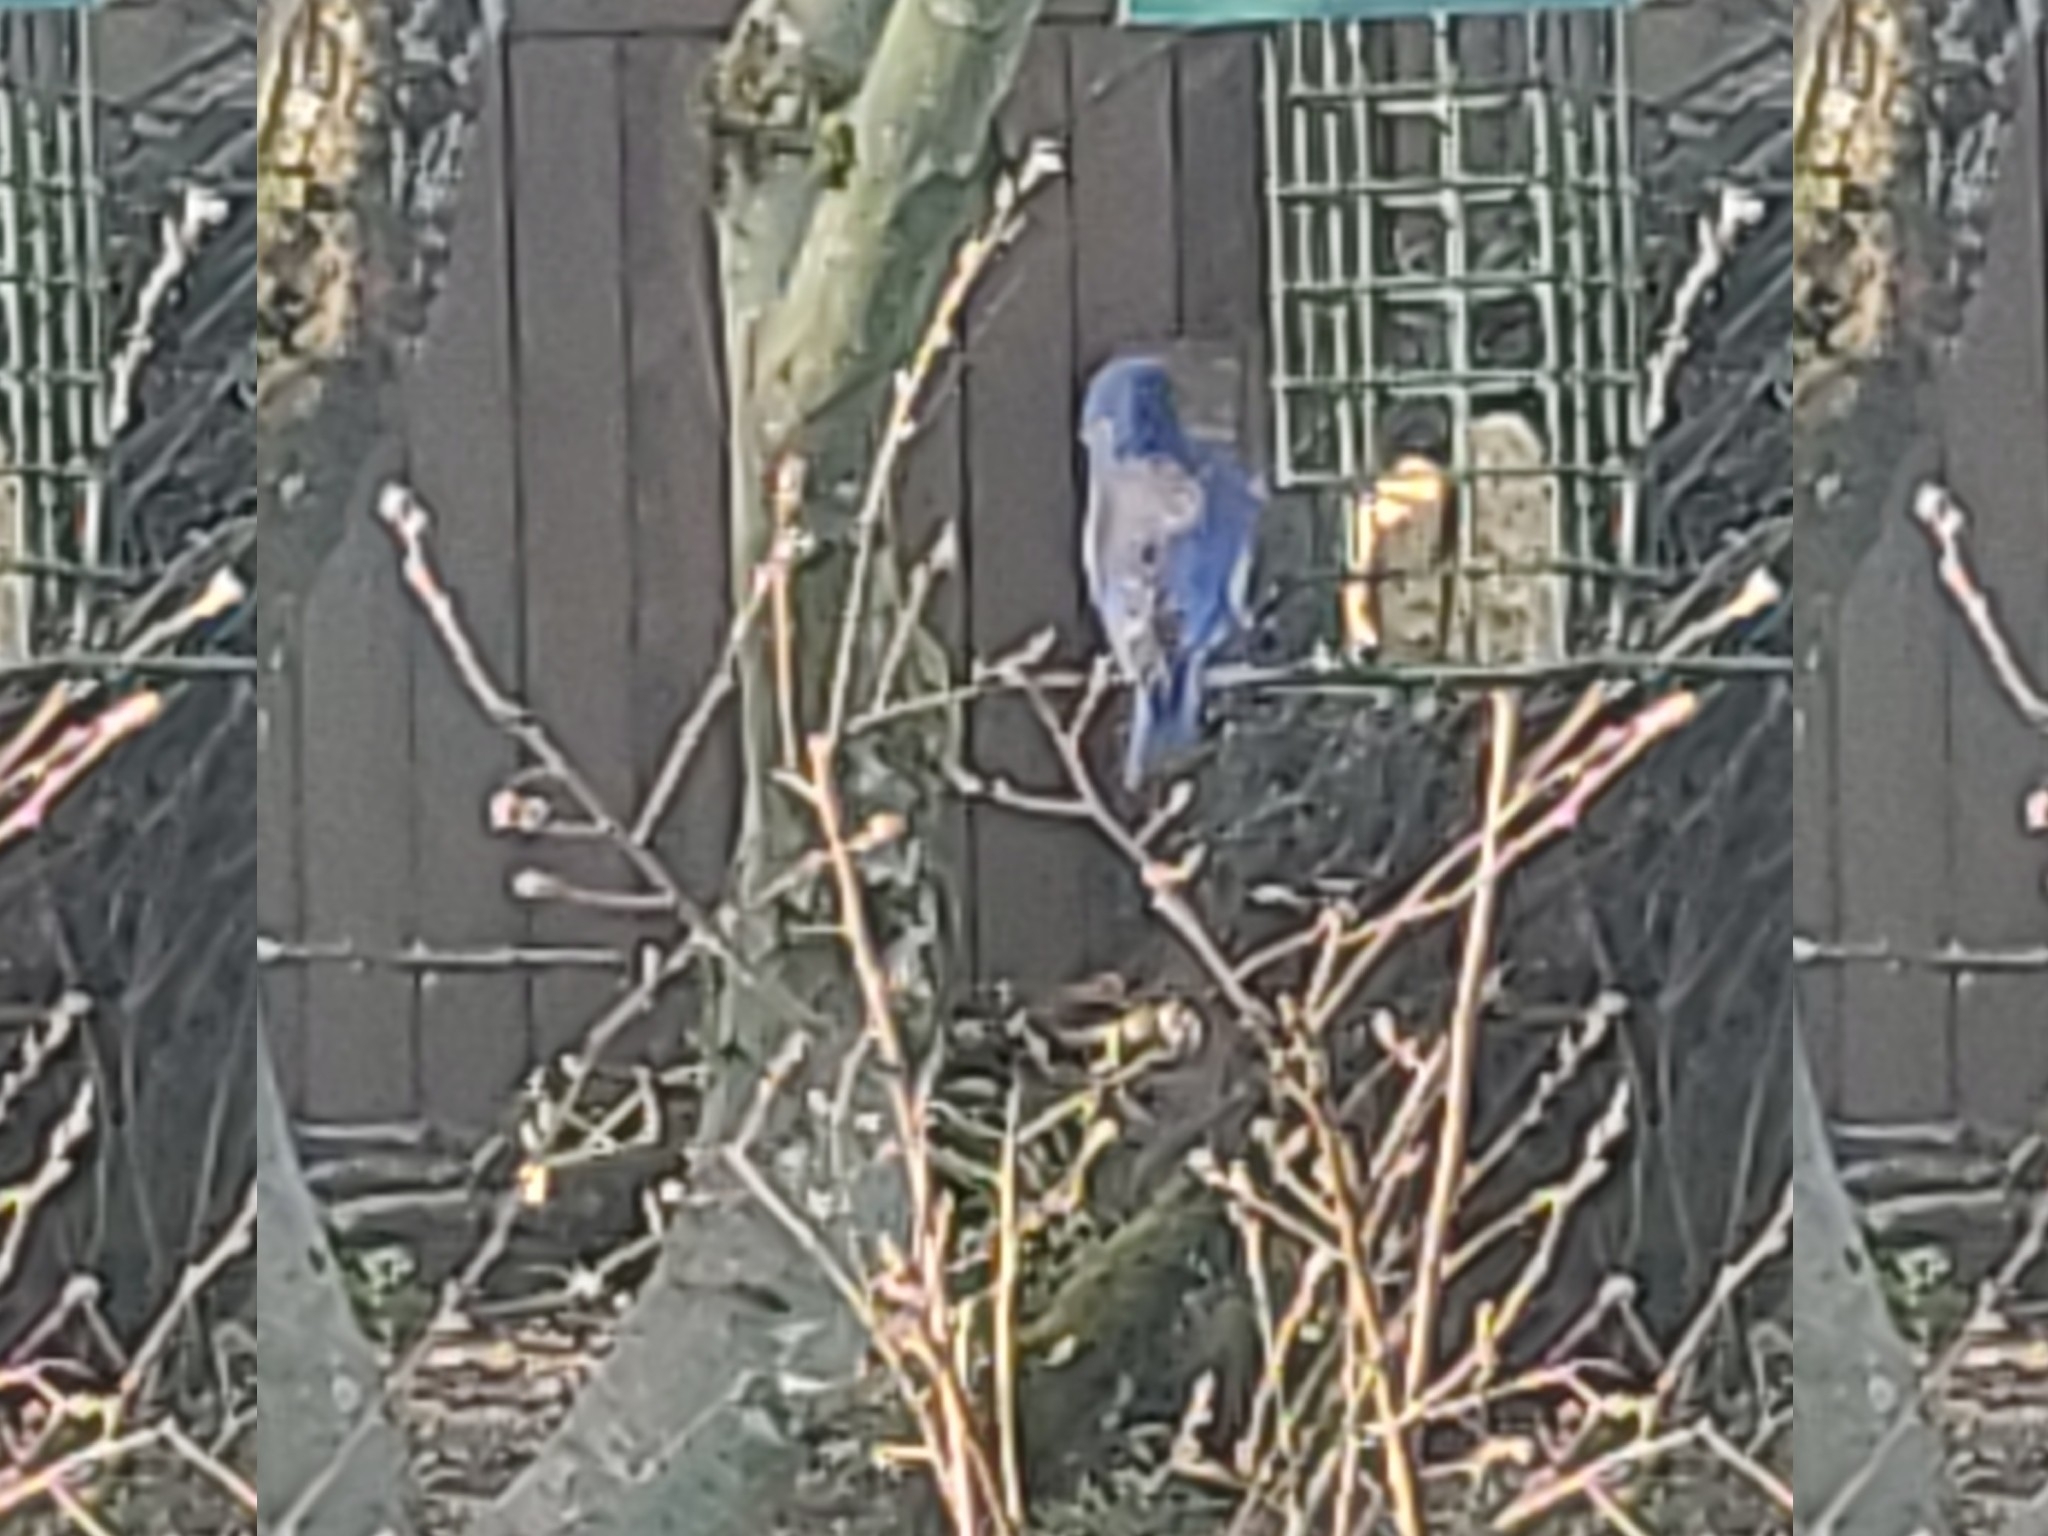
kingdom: Animalia
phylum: Chordata
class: Aves
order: Passeriformes
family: Turdidae
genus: Sialia
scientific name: Sialia mexicana
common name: Western bluebird
